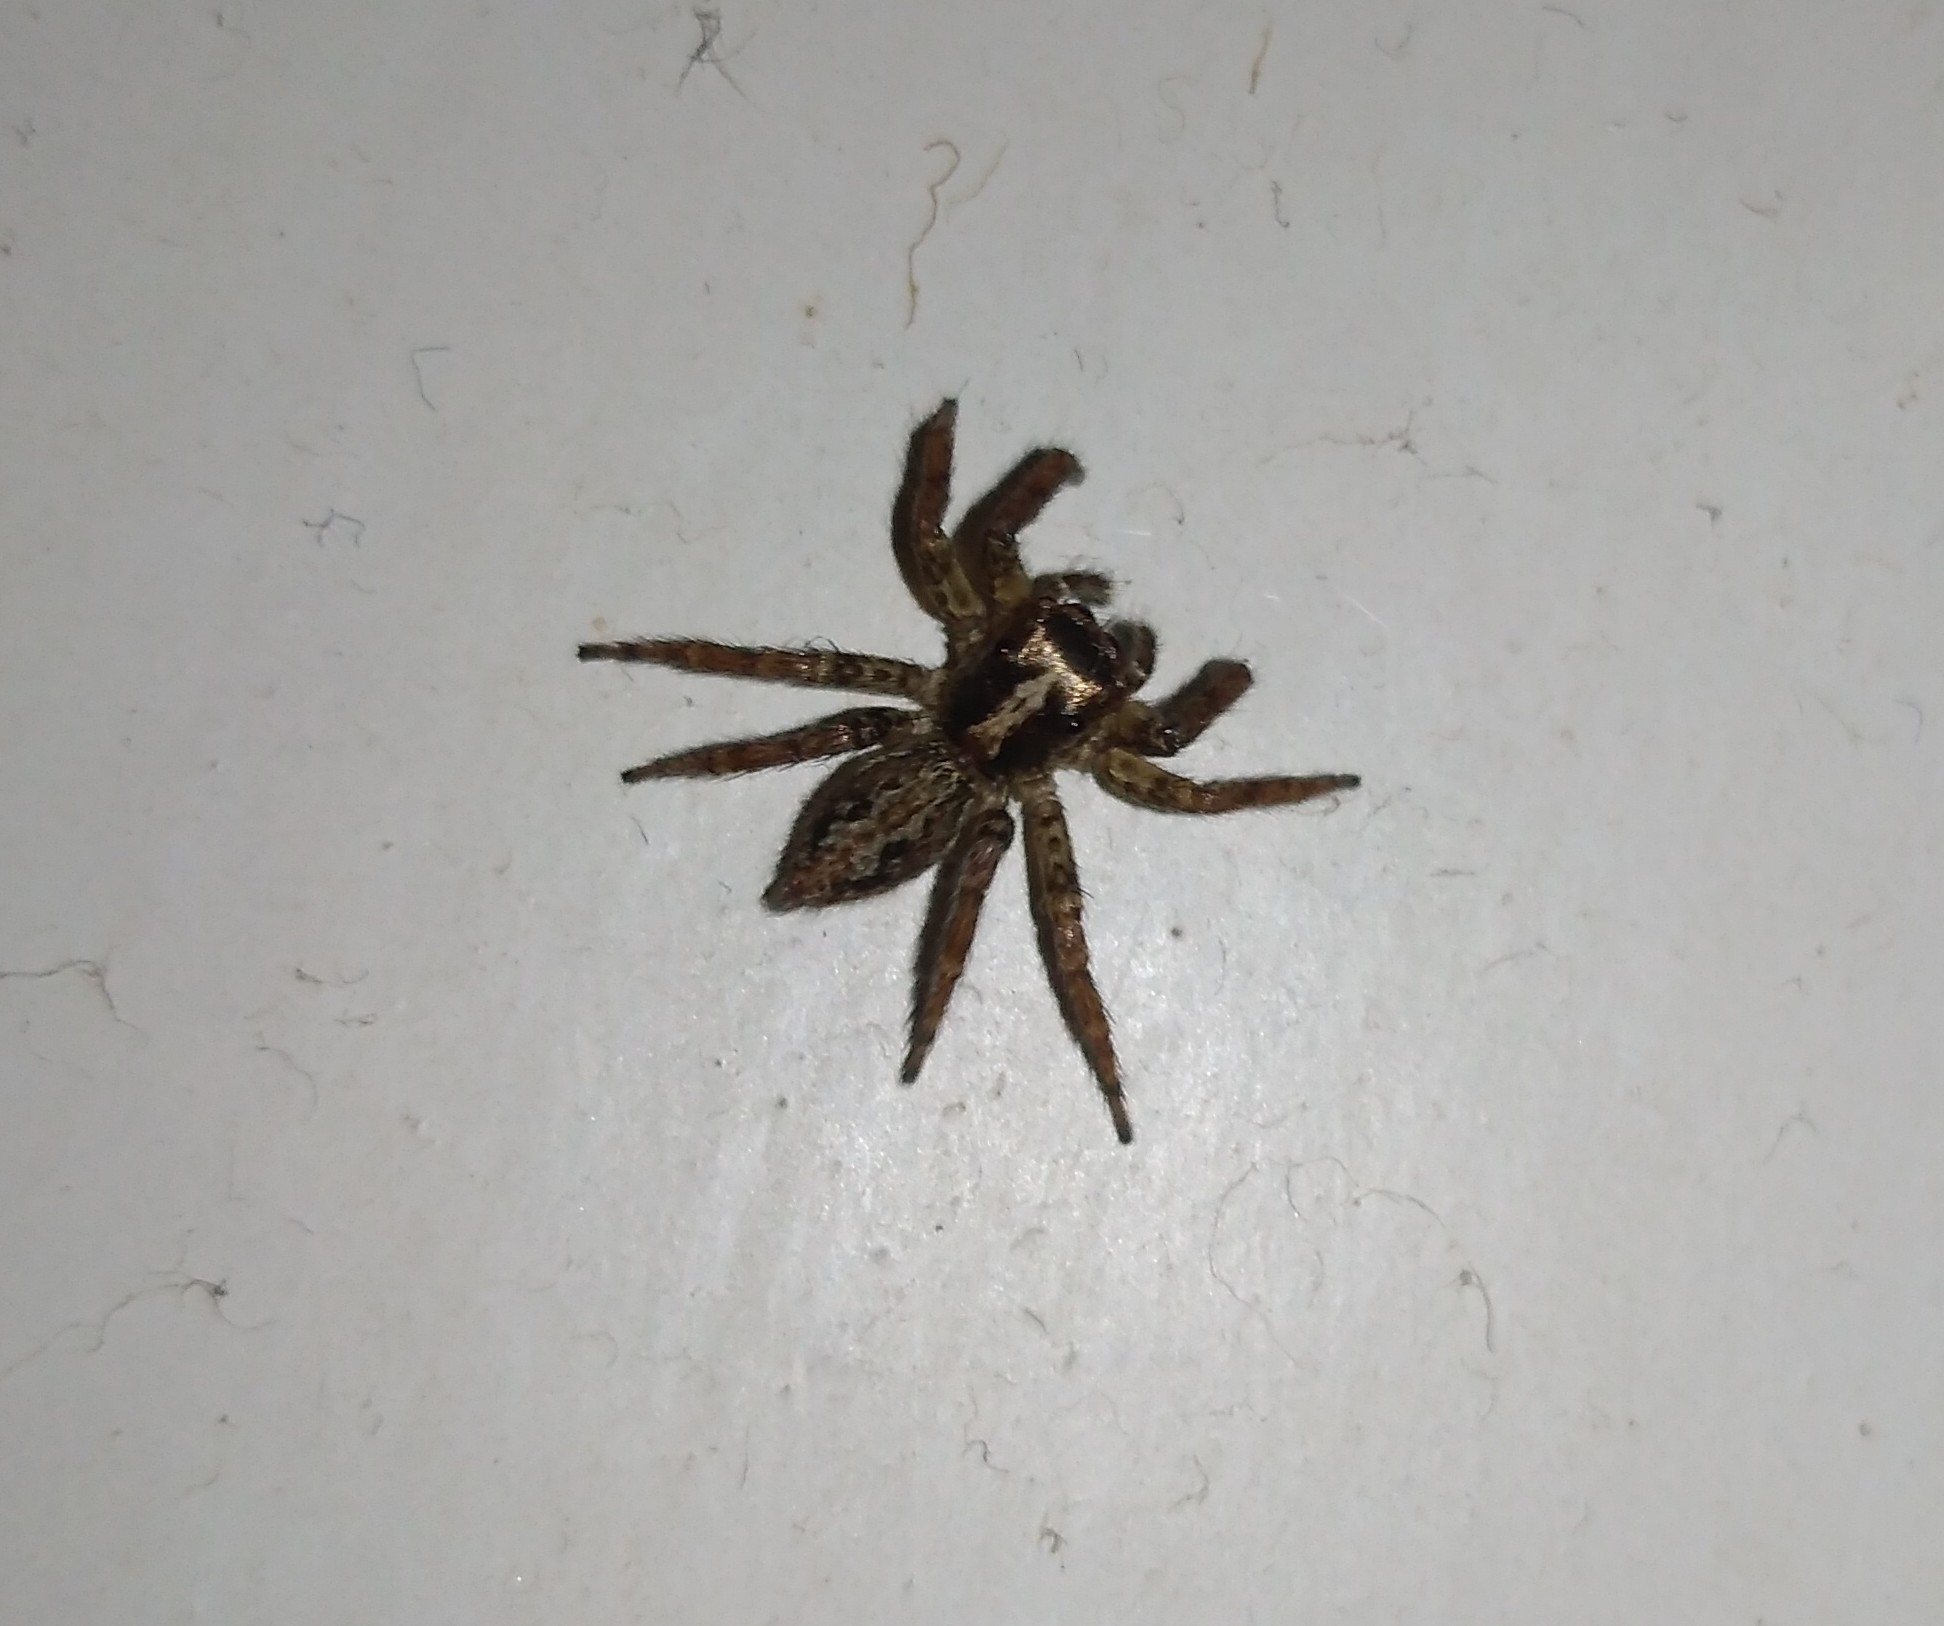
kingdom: Animalia
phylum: Arthropoda
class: Arachnida
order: Araneae
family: Salticidae
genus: Asaphobelis
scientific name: Asaphobelis physonychus
